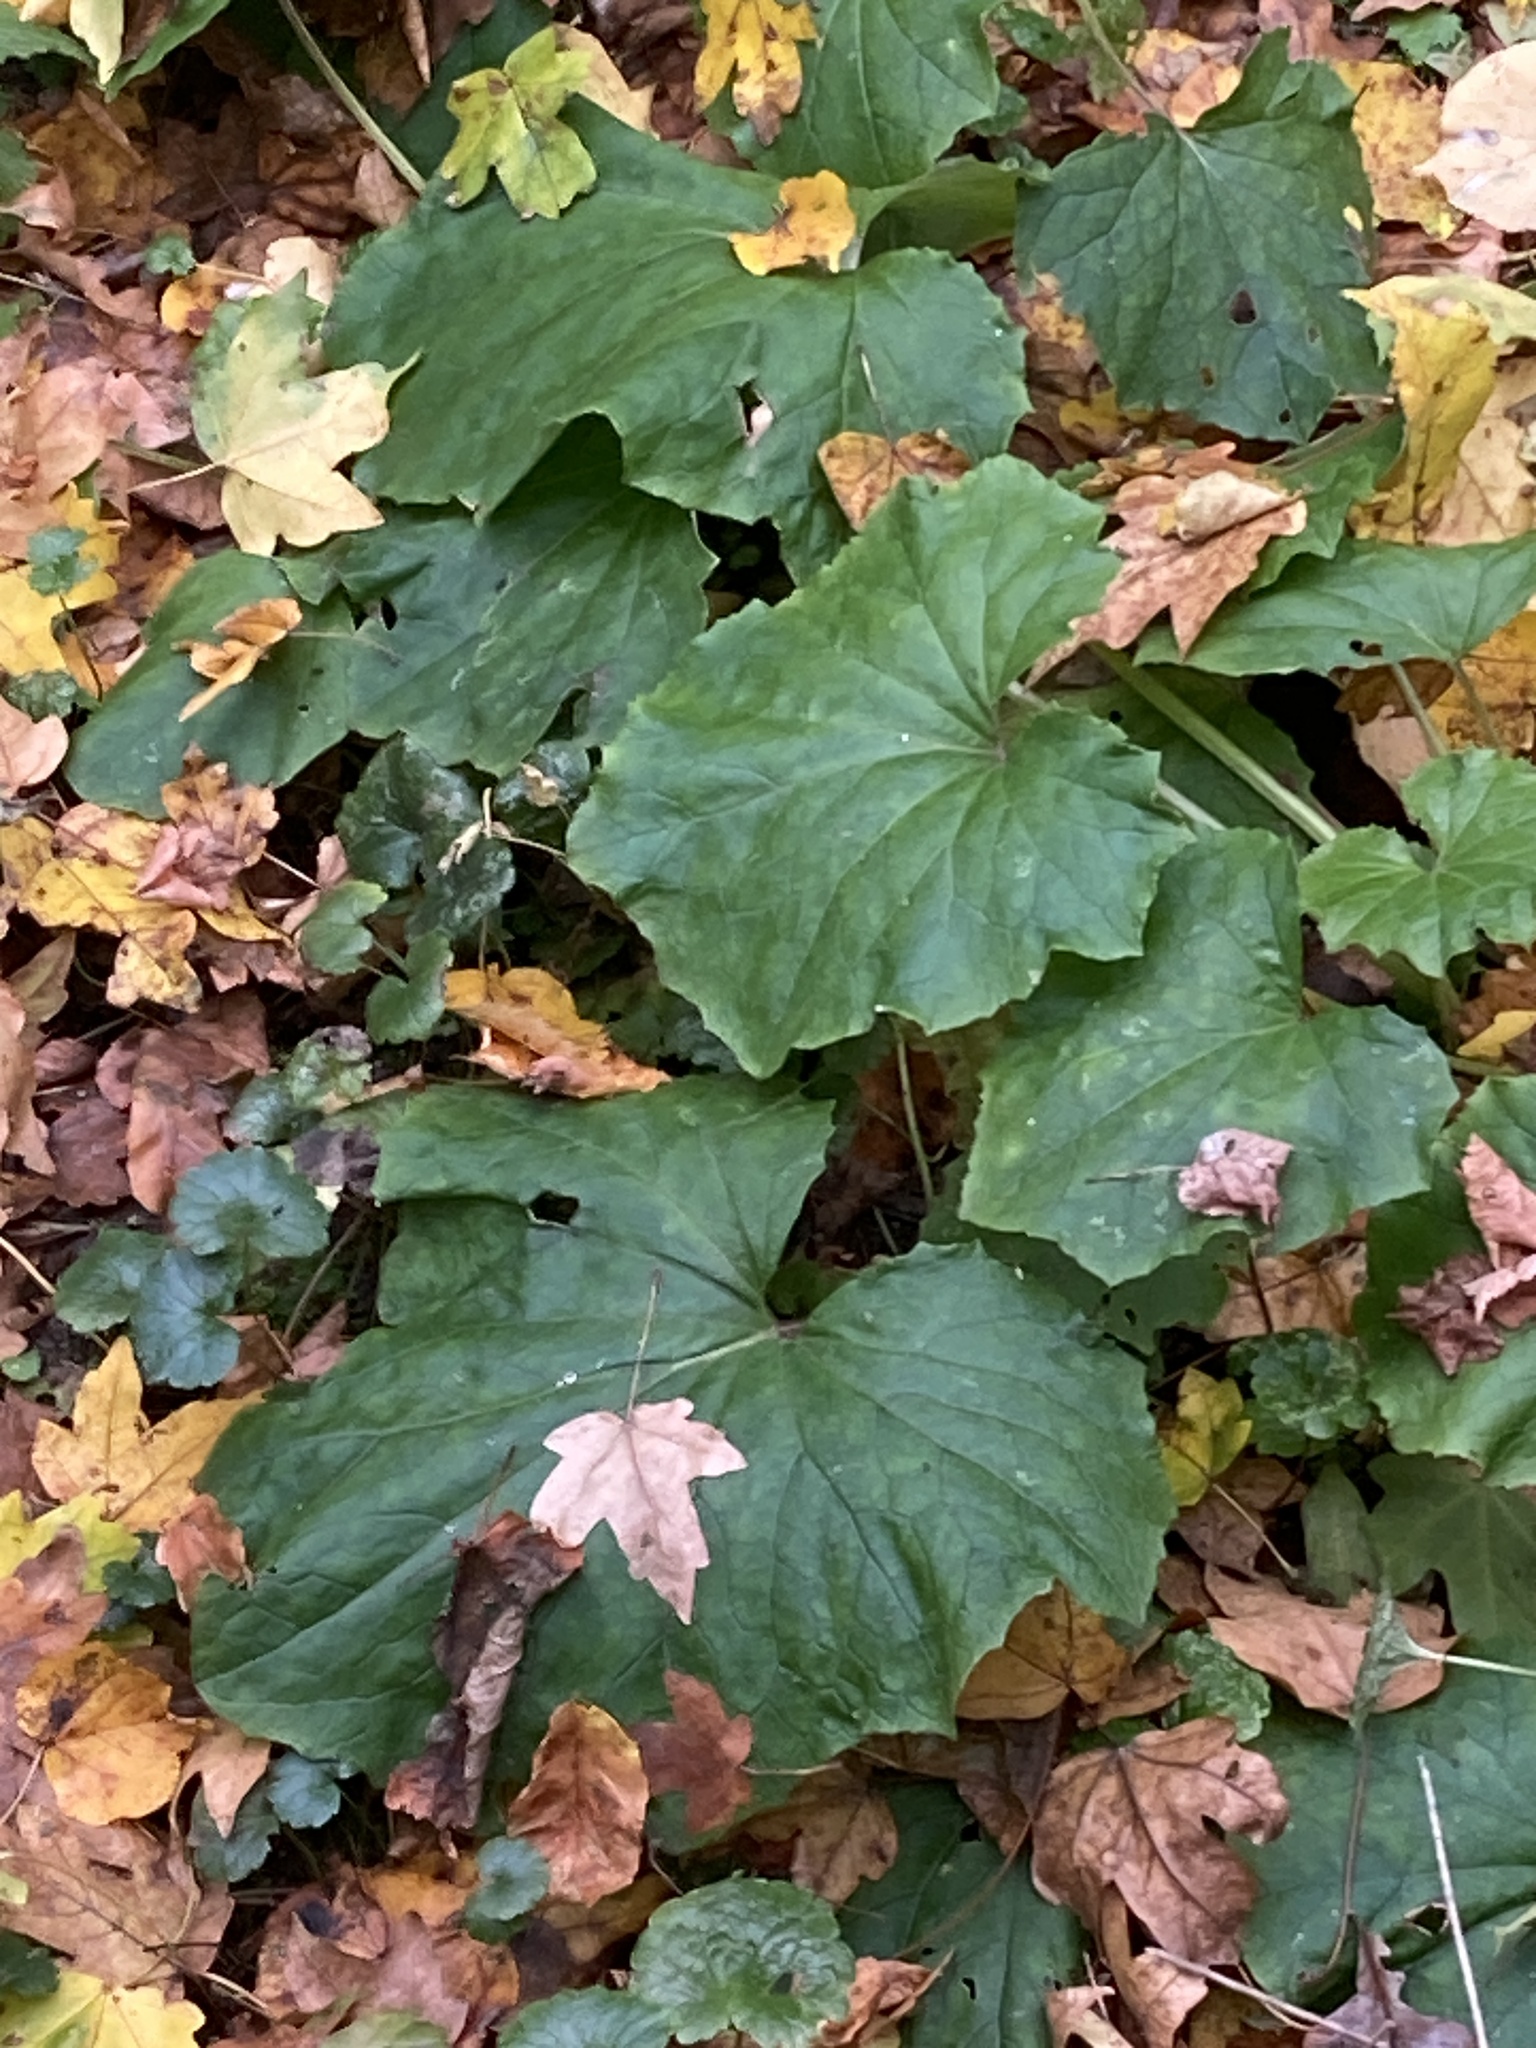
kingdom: Plantae
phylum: Tracheophyta
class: Magnoliopsida
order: Asterales
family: Asteraceae
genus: Tussilago
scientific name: Tussilago farfara
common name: Coltsfoot
